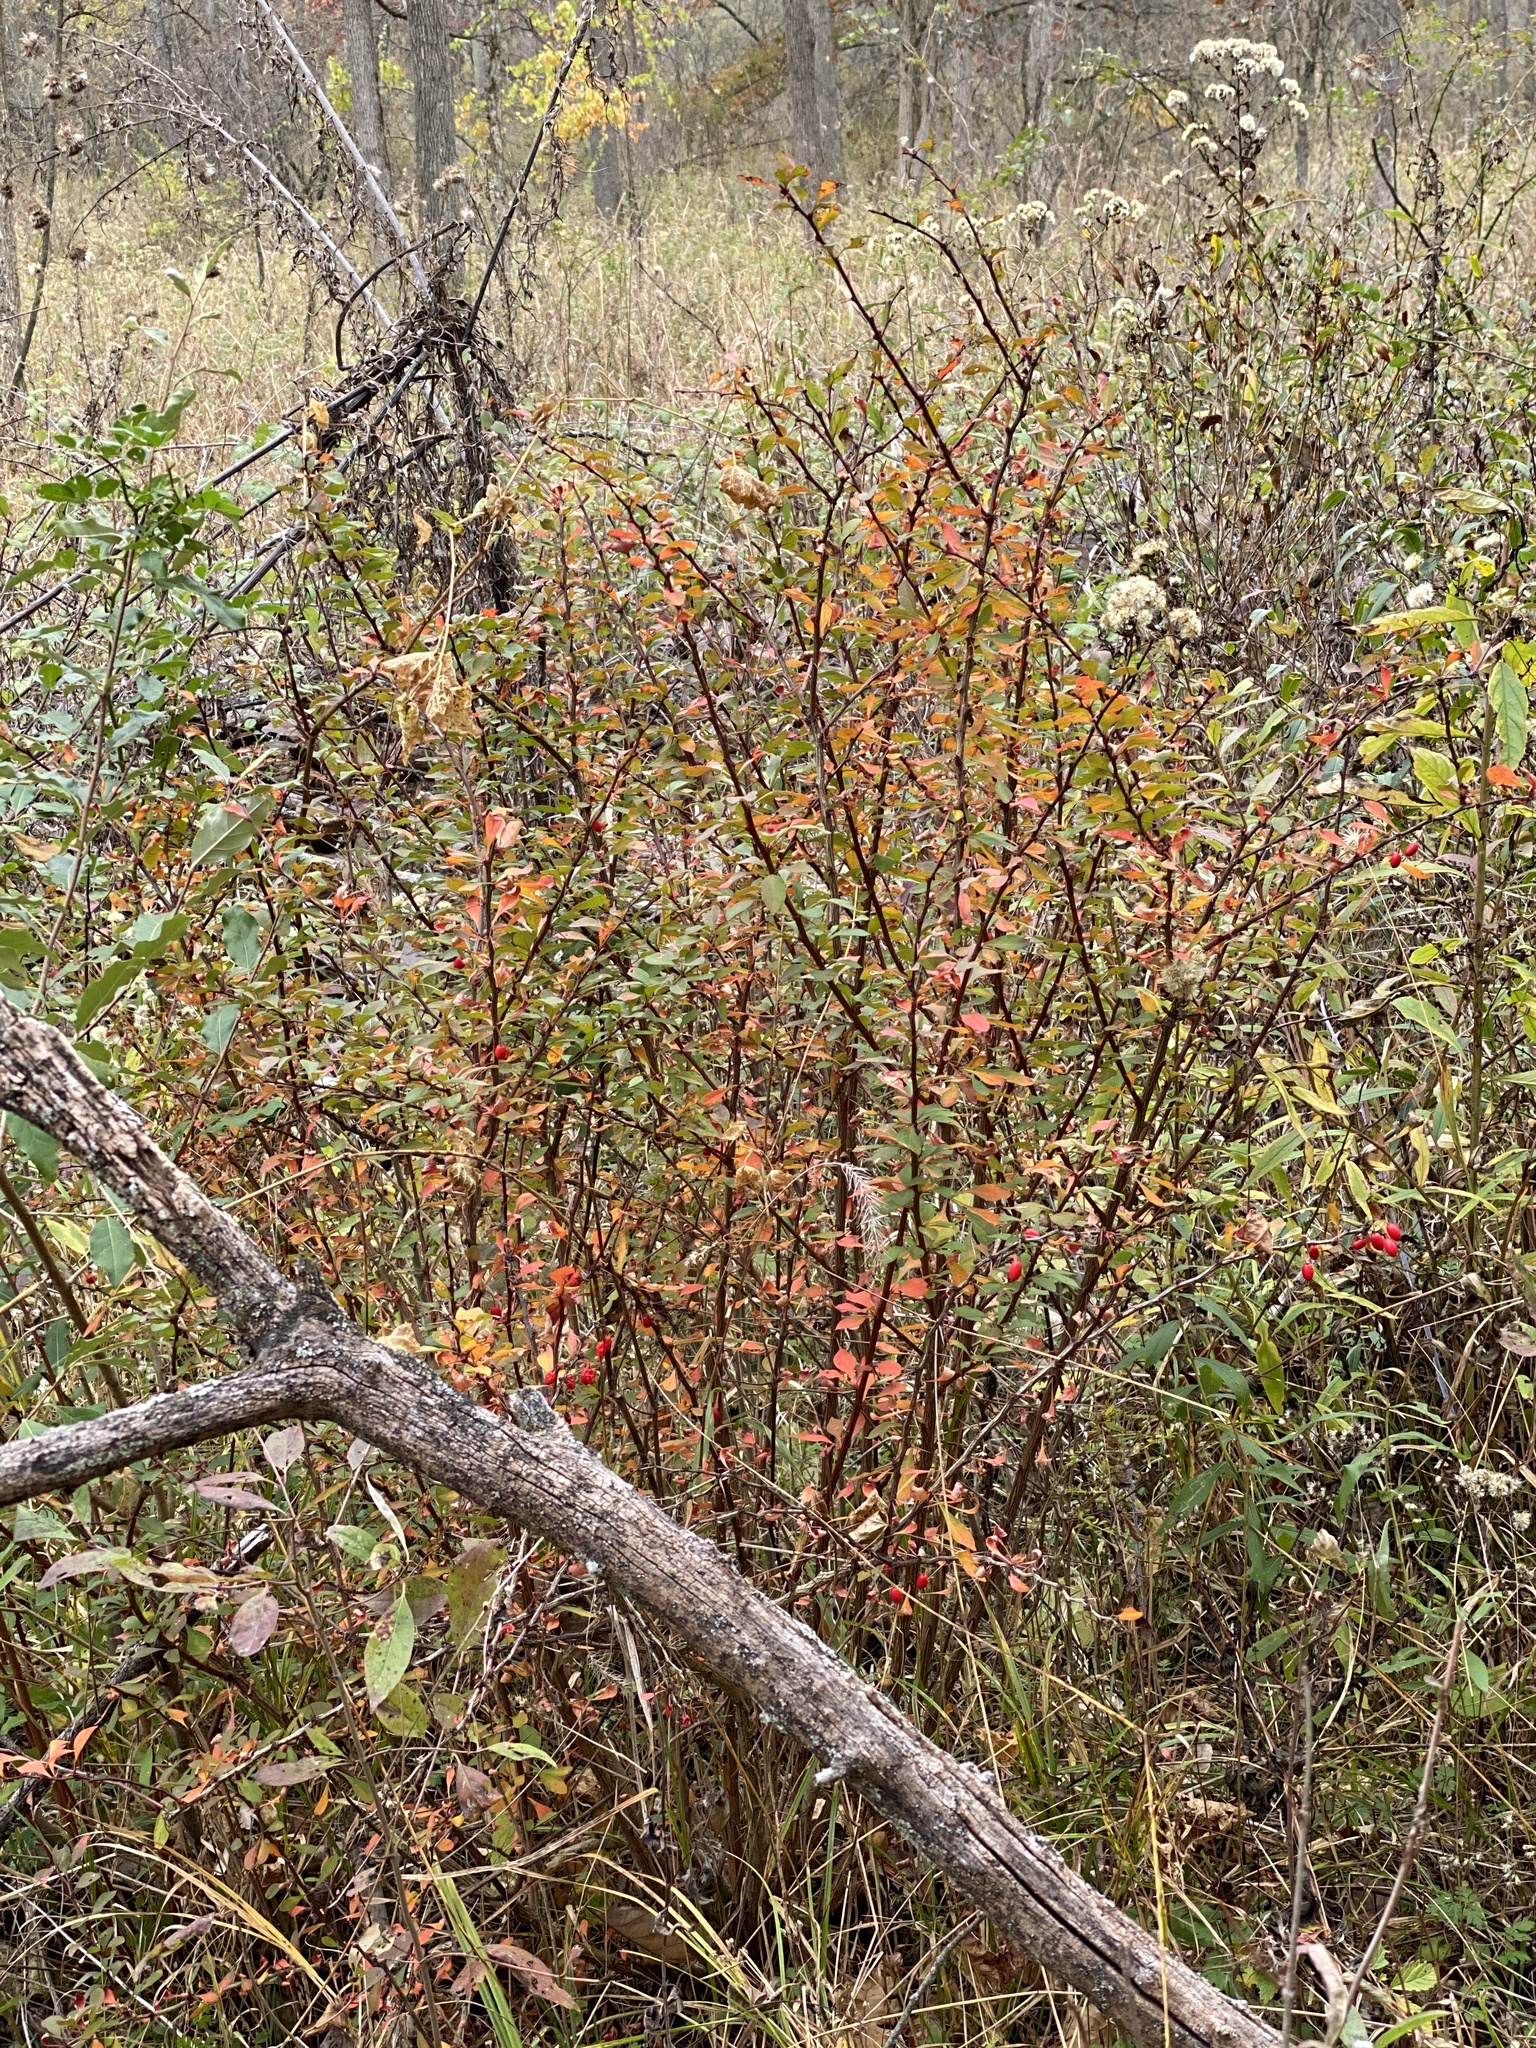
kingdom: Plantae
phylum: Tracheophyta
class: Magnoliopsida
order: Ranunculales
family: Berberidaceae
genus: Berberis
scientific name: Berberis thunbergii
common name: Japanese barberry
